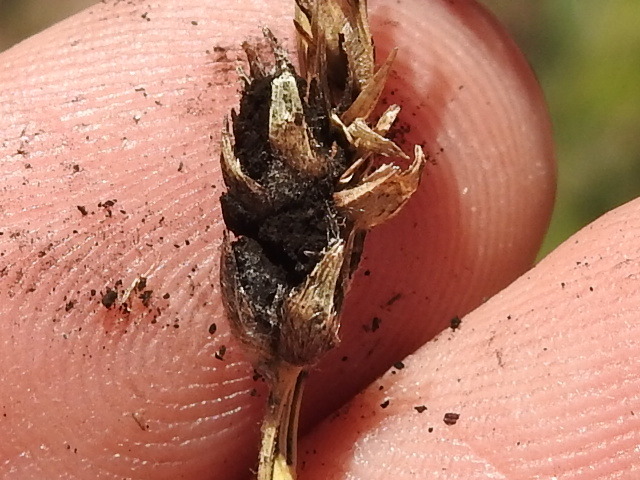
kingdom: Fungi
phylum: Basidiomycota
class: Ustilaginomycetes
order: Ustilaginales
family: Ustilaginaceae
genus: Sporisorium
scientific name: Sporisorium cruentum
